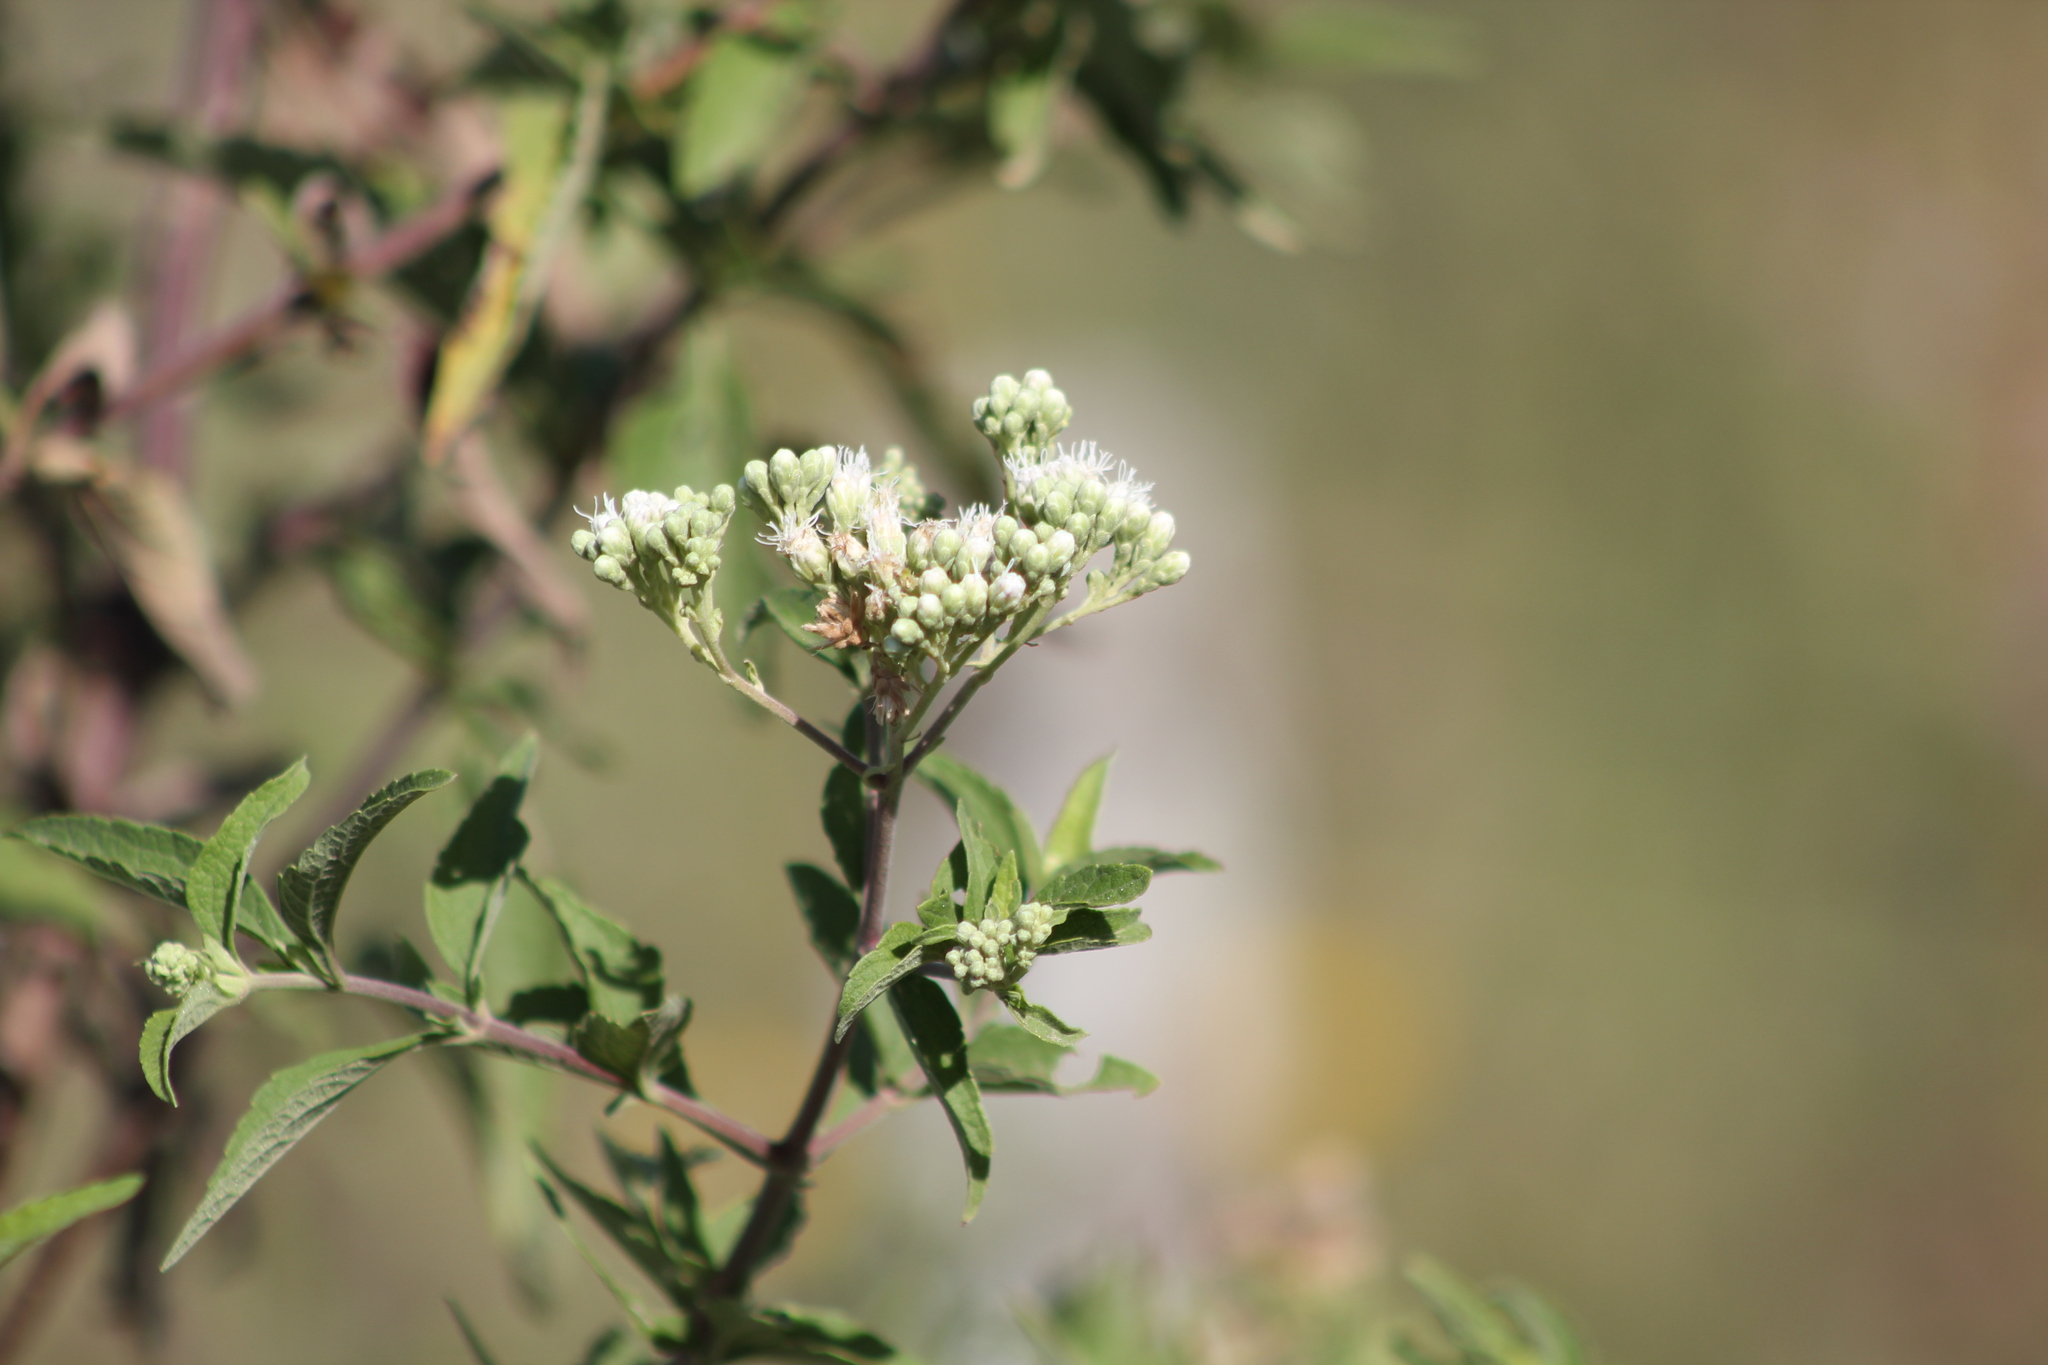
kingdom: Plantae
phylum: Tracheophyta
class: Magnoliopsida
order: Asterales
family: Asteraceae
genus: Austroeupatorium
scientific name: Austroeupatorium inulifolium
